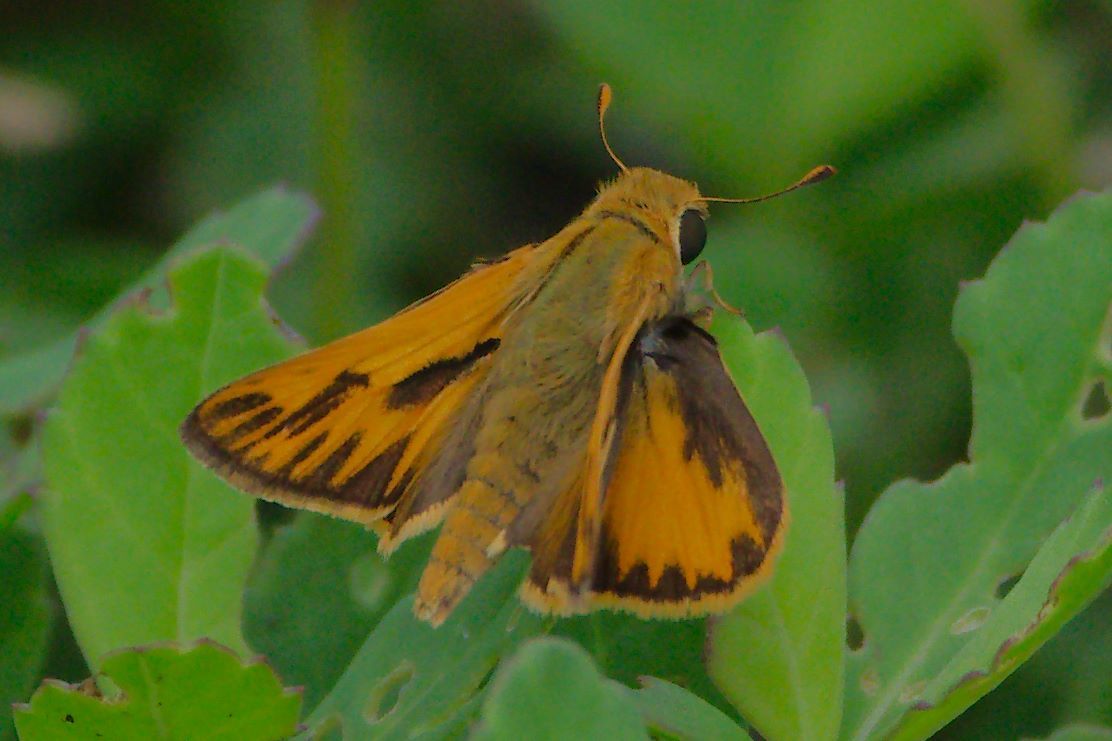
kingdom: Animalia
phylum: Arthropoda
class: Insecta
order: Lepidoptera
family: Hesperiidae
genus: Hylephila
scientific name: Hylephila phyleus
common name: Fiery skipper
